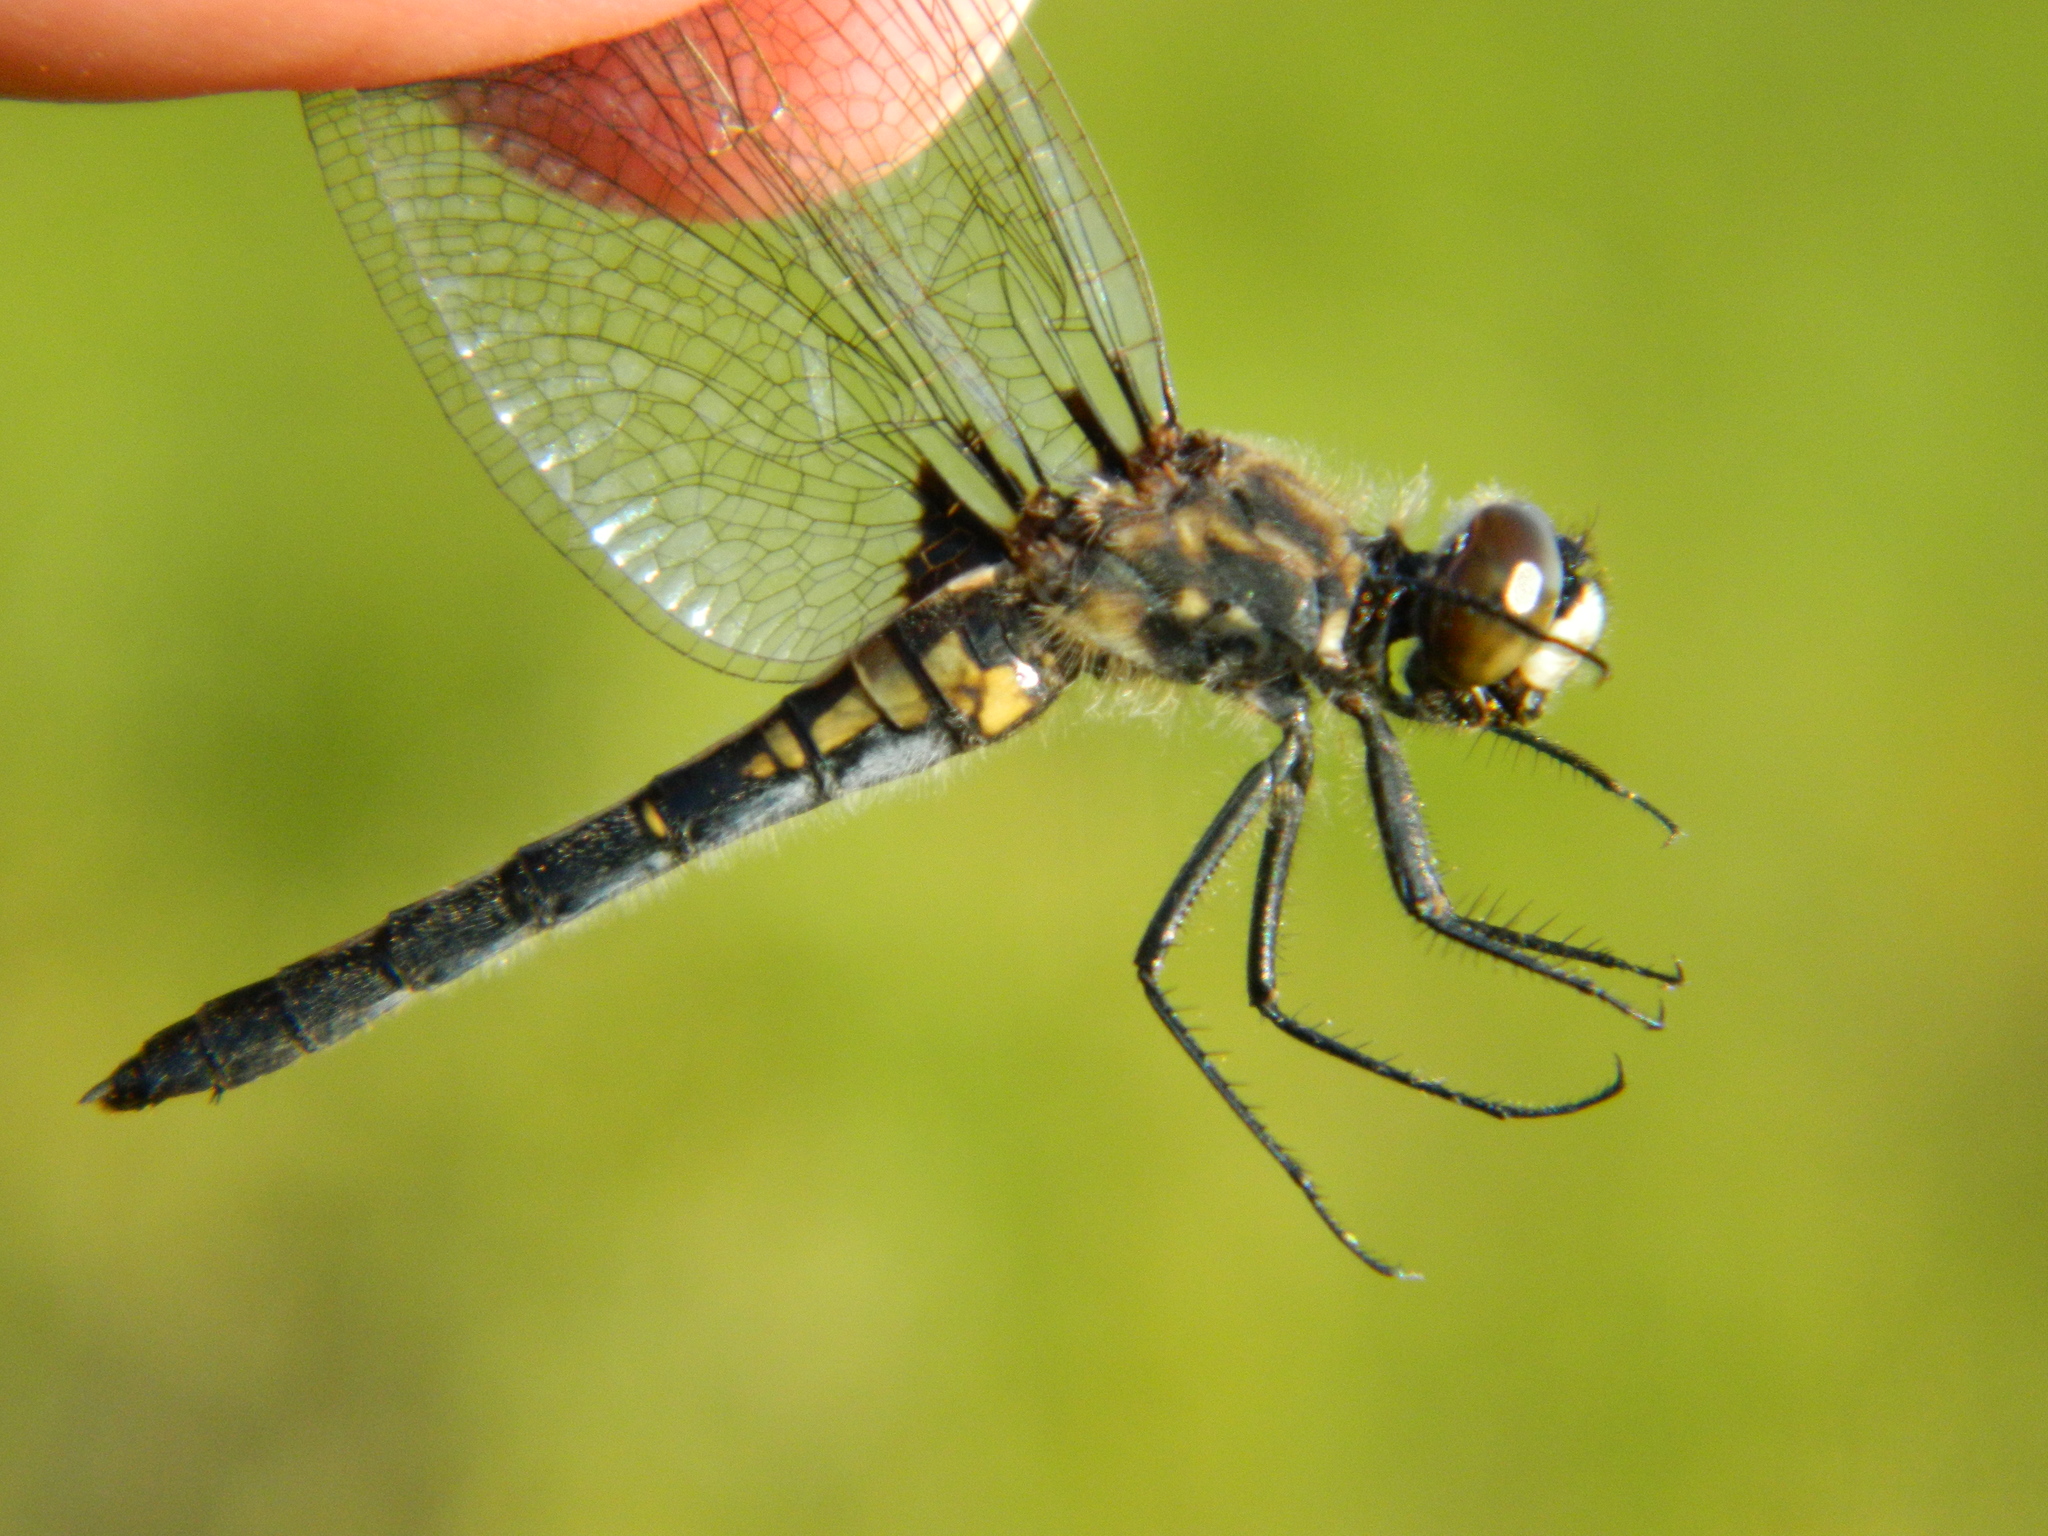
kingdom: Animalia
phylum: Arthropoda
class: Insecta
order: Odonata
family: Libellulidae
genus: Leucorrhinia
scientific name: Leucorrhinia hudsonica
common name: Hudsonian whiteface
